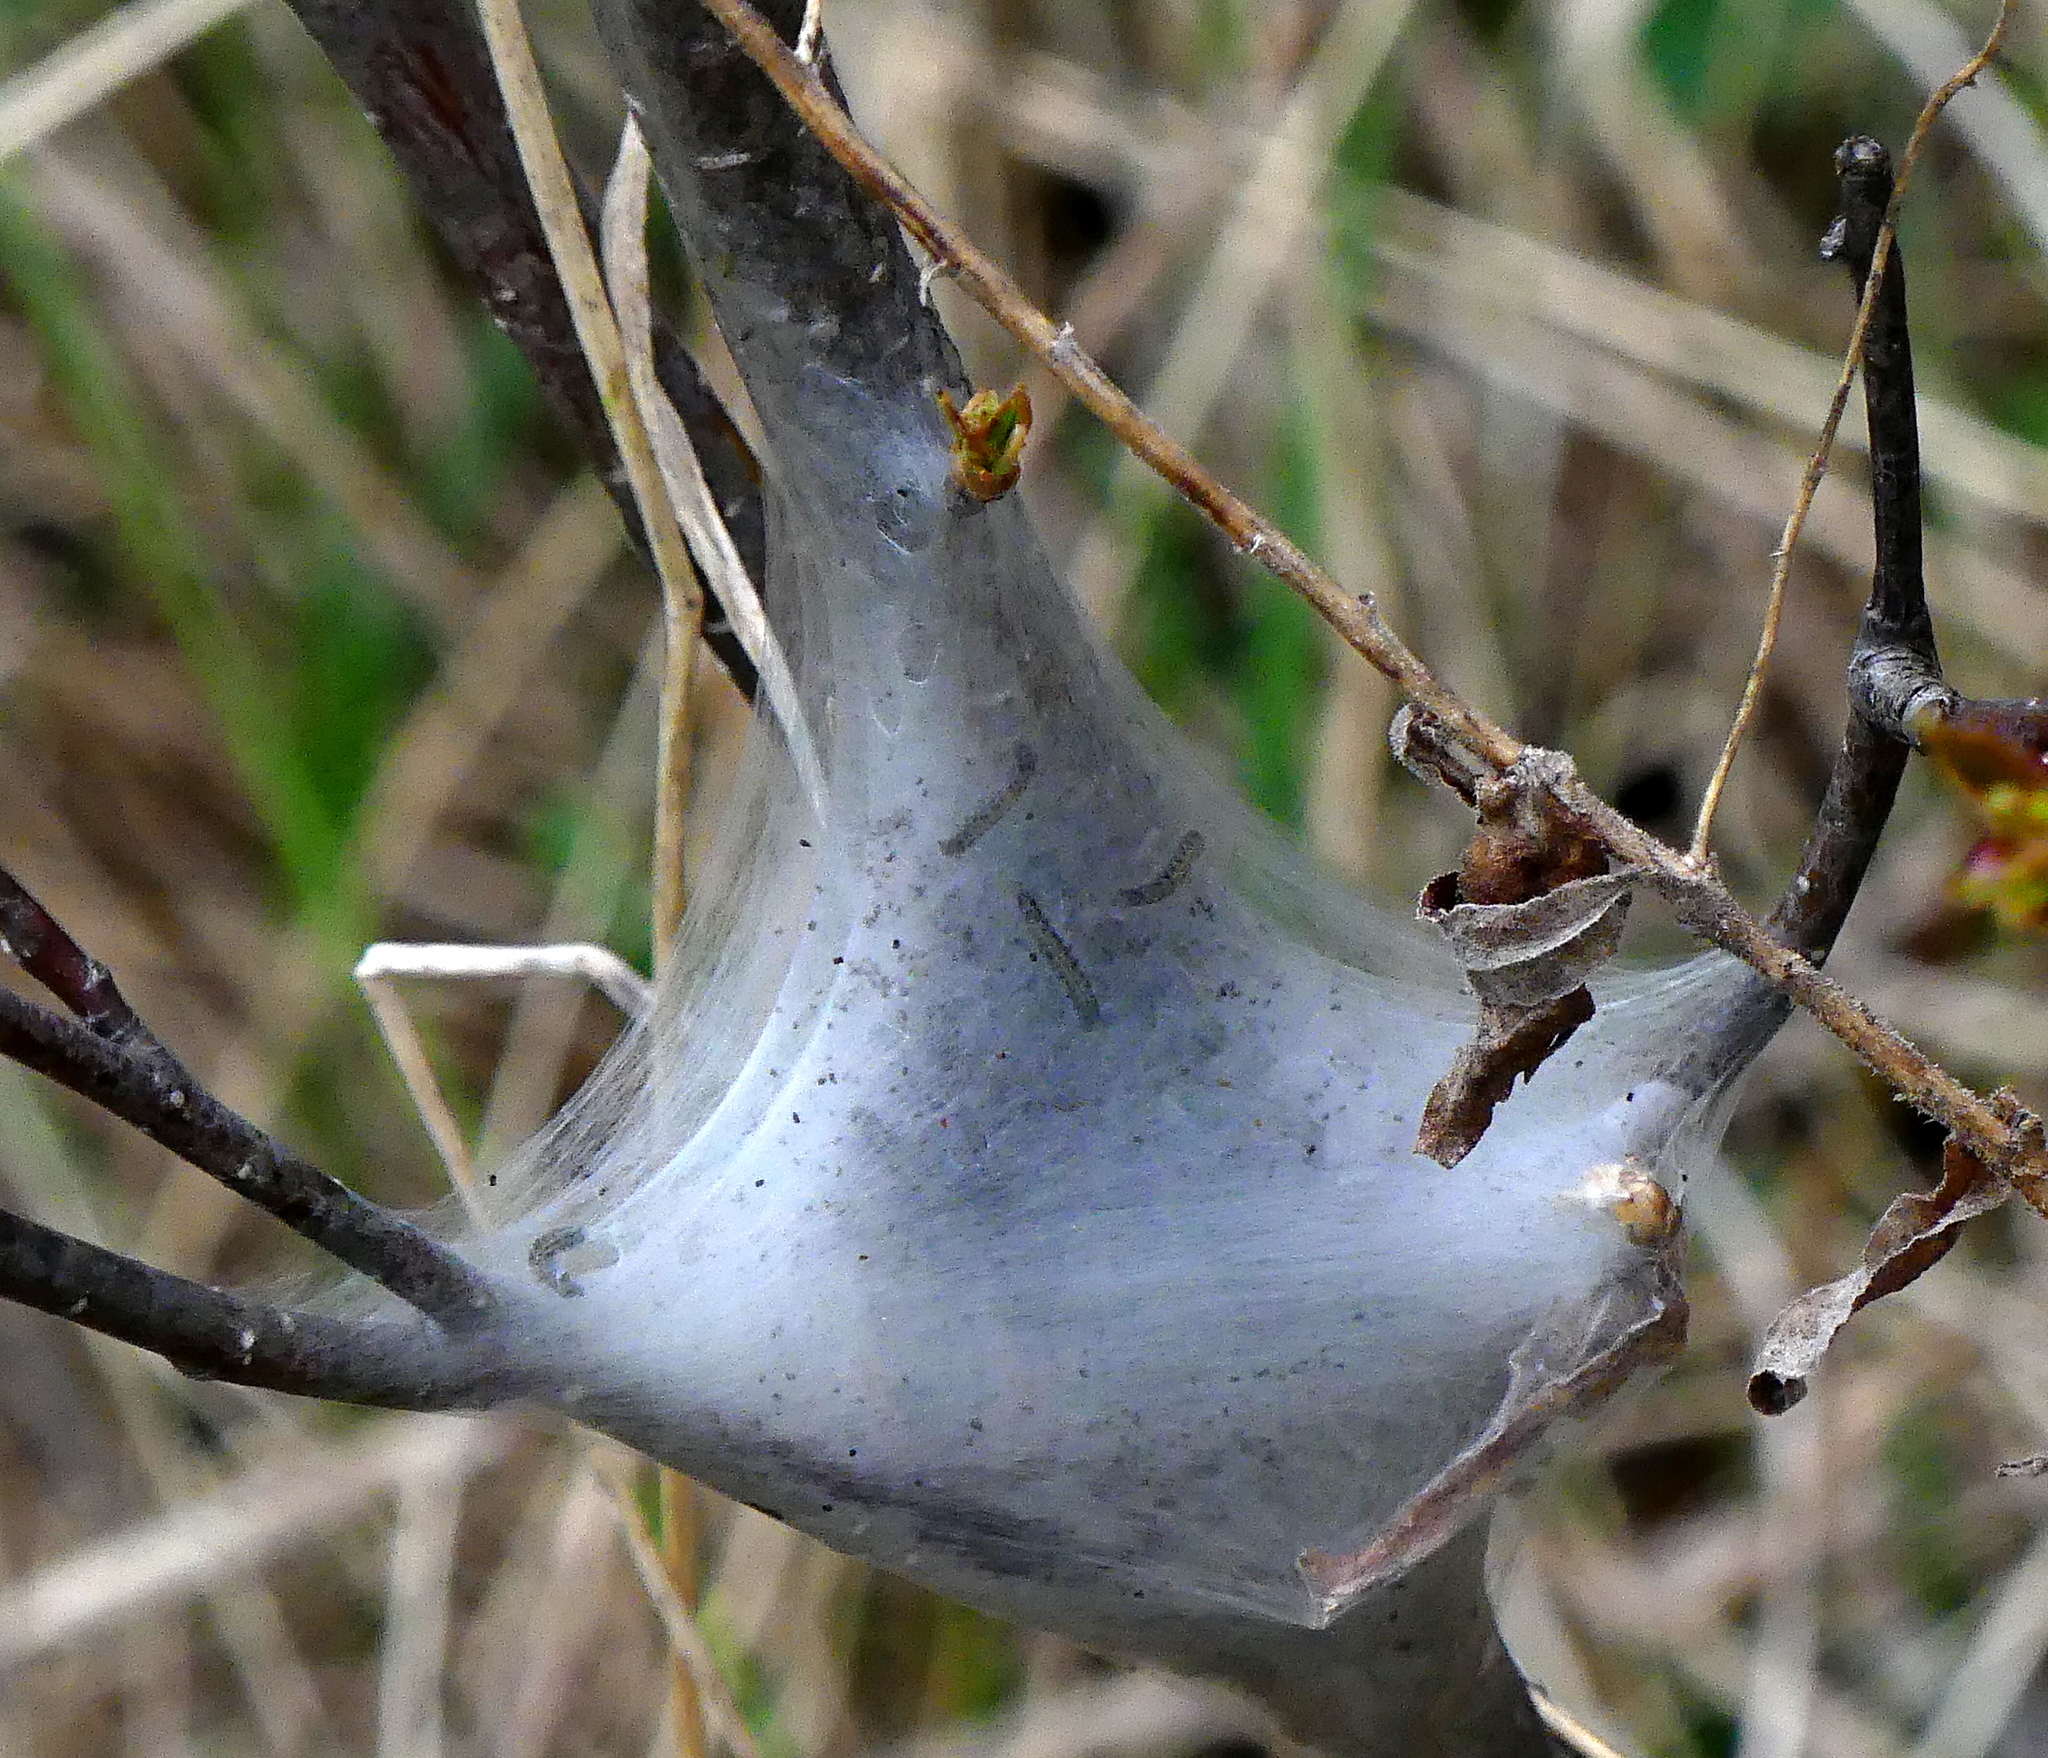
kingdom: Animalia
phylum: Arthropoda
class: Insecta
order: Lepidoptera
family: Lasiocampidae
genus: Malacosoma
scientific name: Malacosoma americana
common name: Eastern tent caterpillar moth
